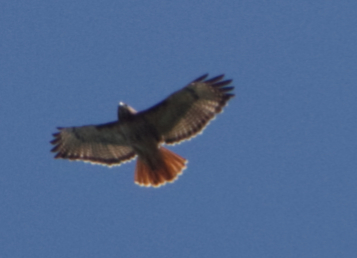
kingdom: Animalia
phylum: Chordata
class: Aves
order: Accipitriformes
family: Accipitridae
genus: Buteo
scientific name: Buteo jamaicensis
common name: Red-tailed hawk
